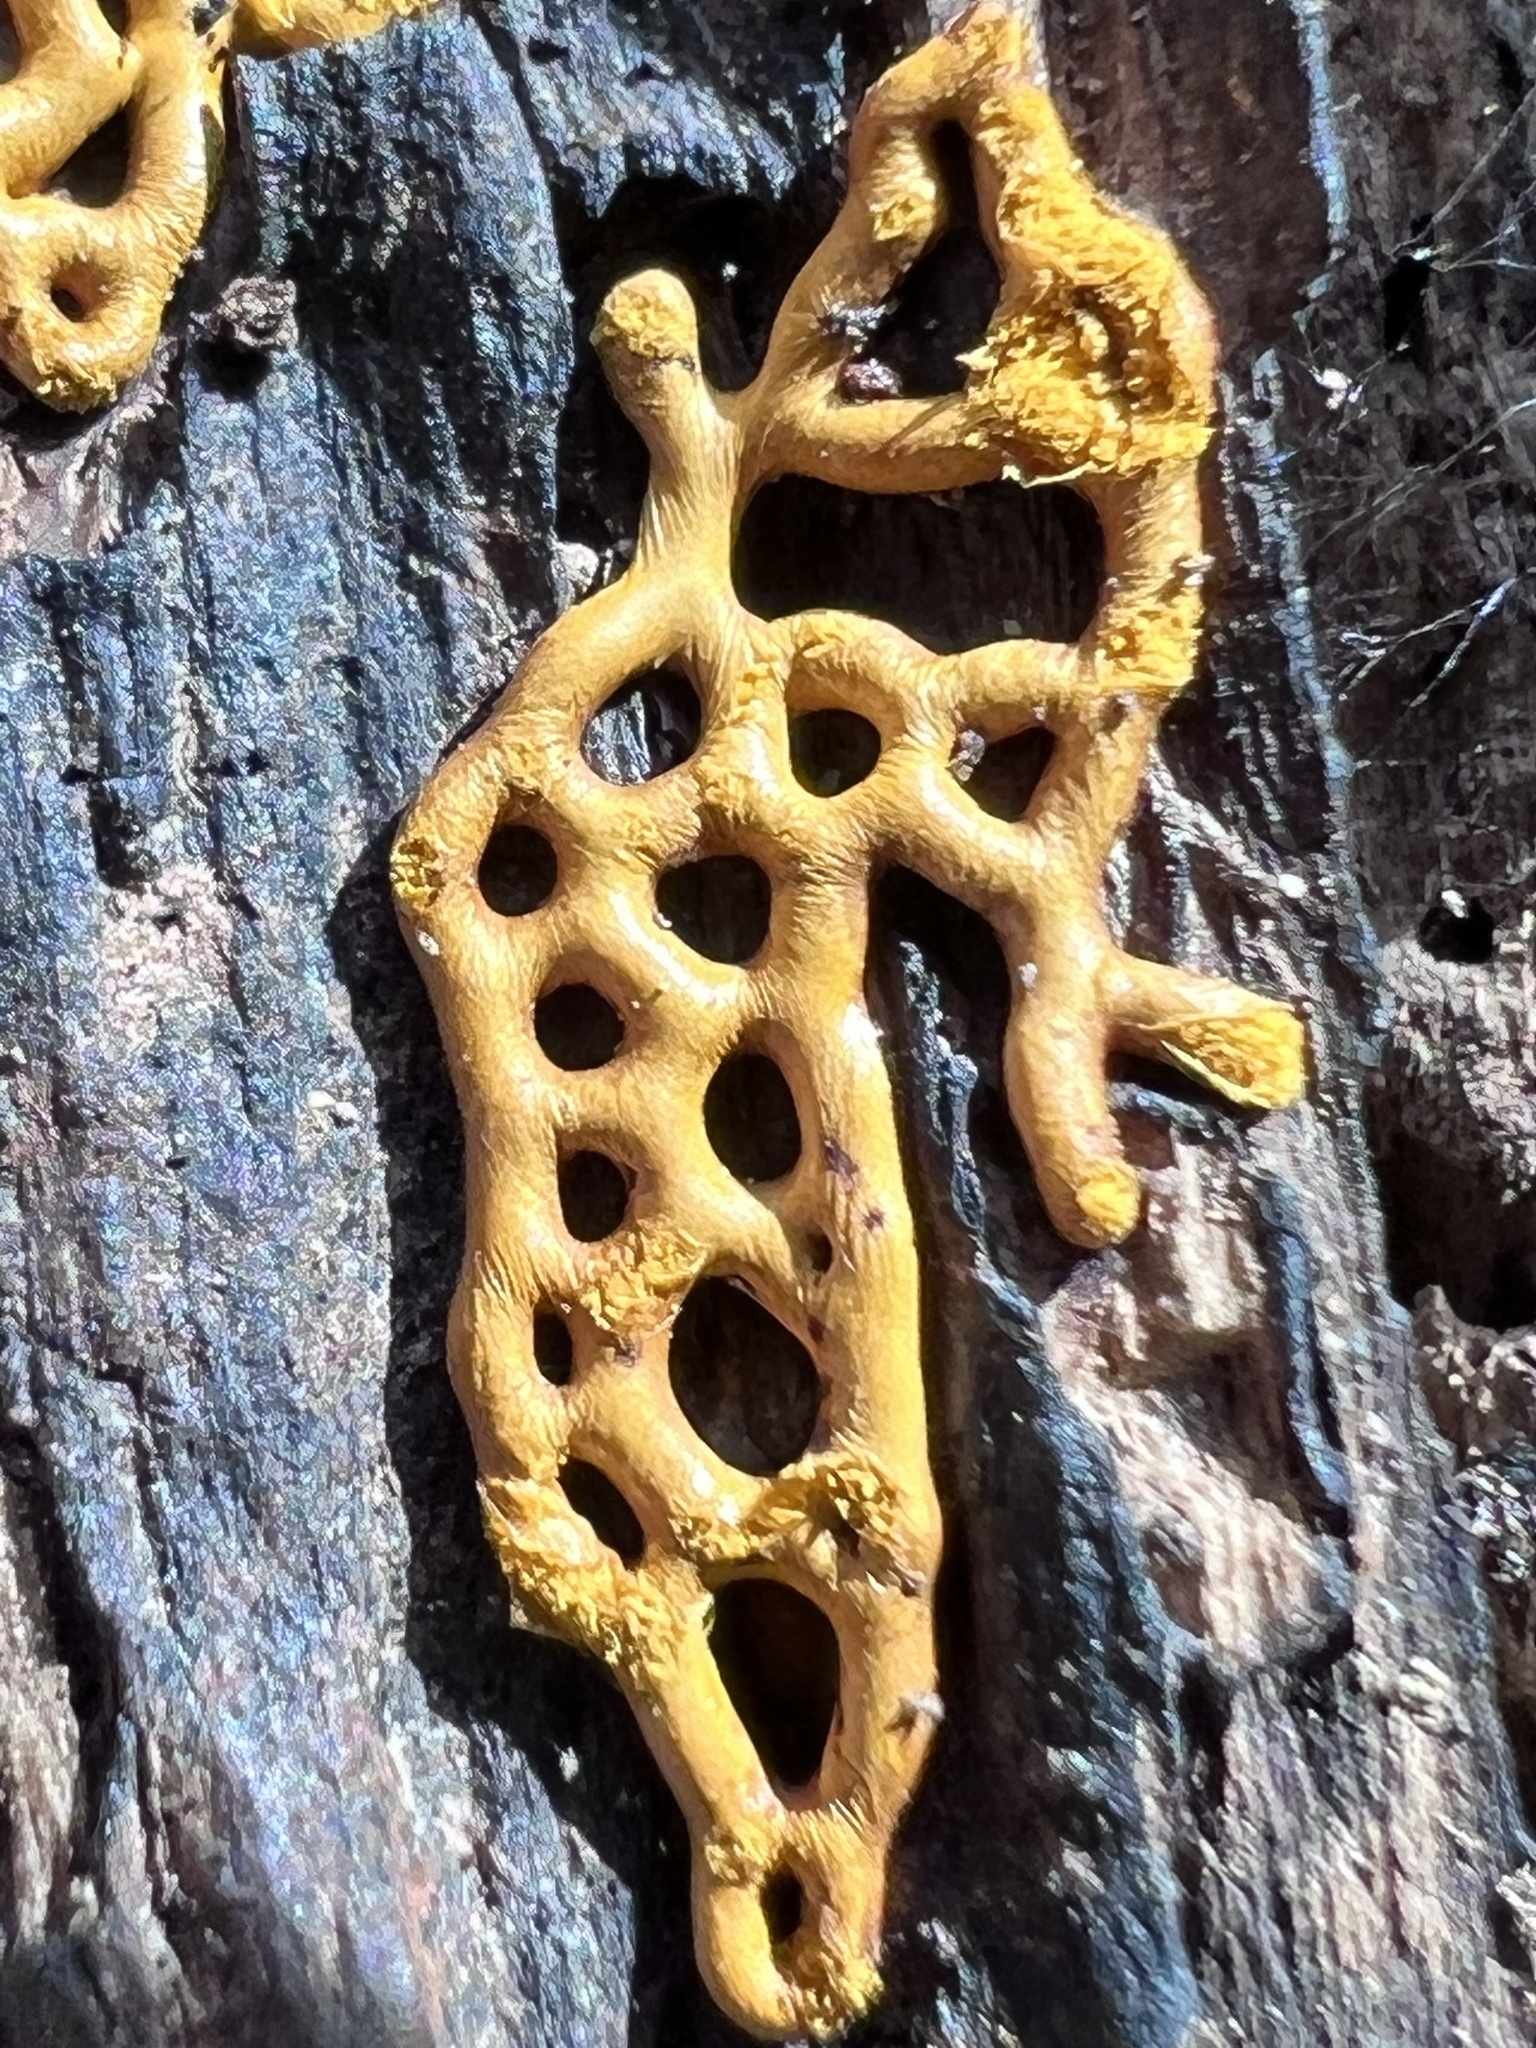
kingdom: Protozoa
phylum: Mycetozoa
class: Myxomycetes
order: Trichiales
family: Arcyriaceae
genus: Hemitrichia
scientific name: Hemitrichia serpula
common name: Pretzel slime mold
